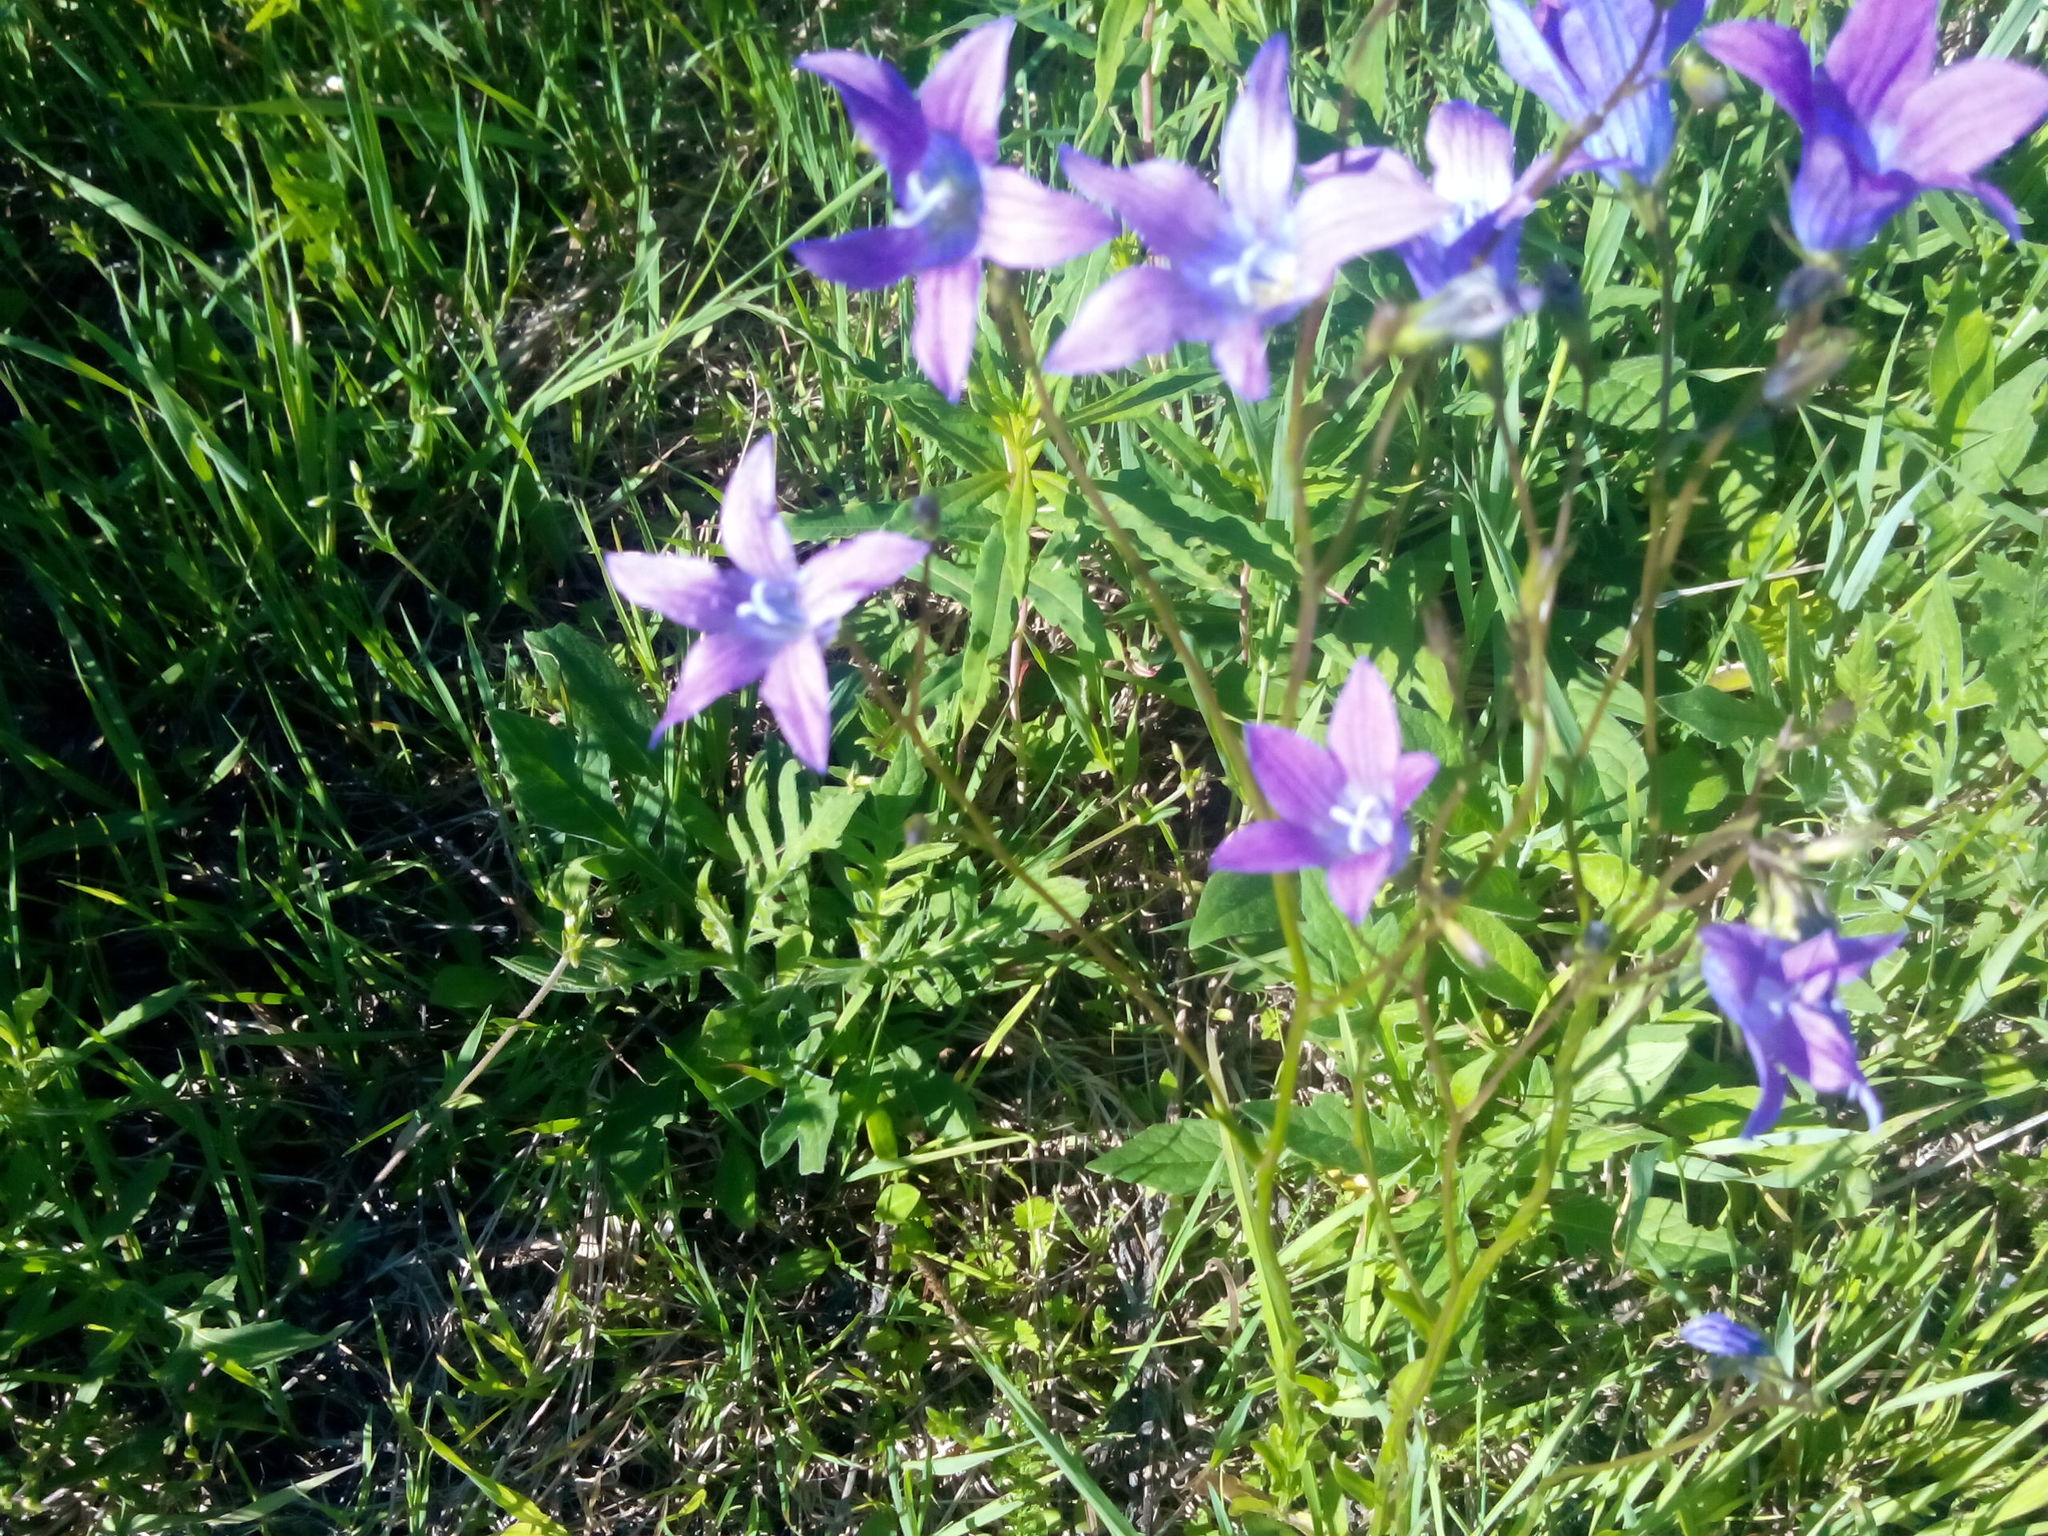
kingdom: Plantae
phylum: Tracheophyta
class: Magnoliopsida
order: Asterales
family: Campanulaceae
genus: Campanula
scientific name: Campanula patula
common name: Spreading bellflower
